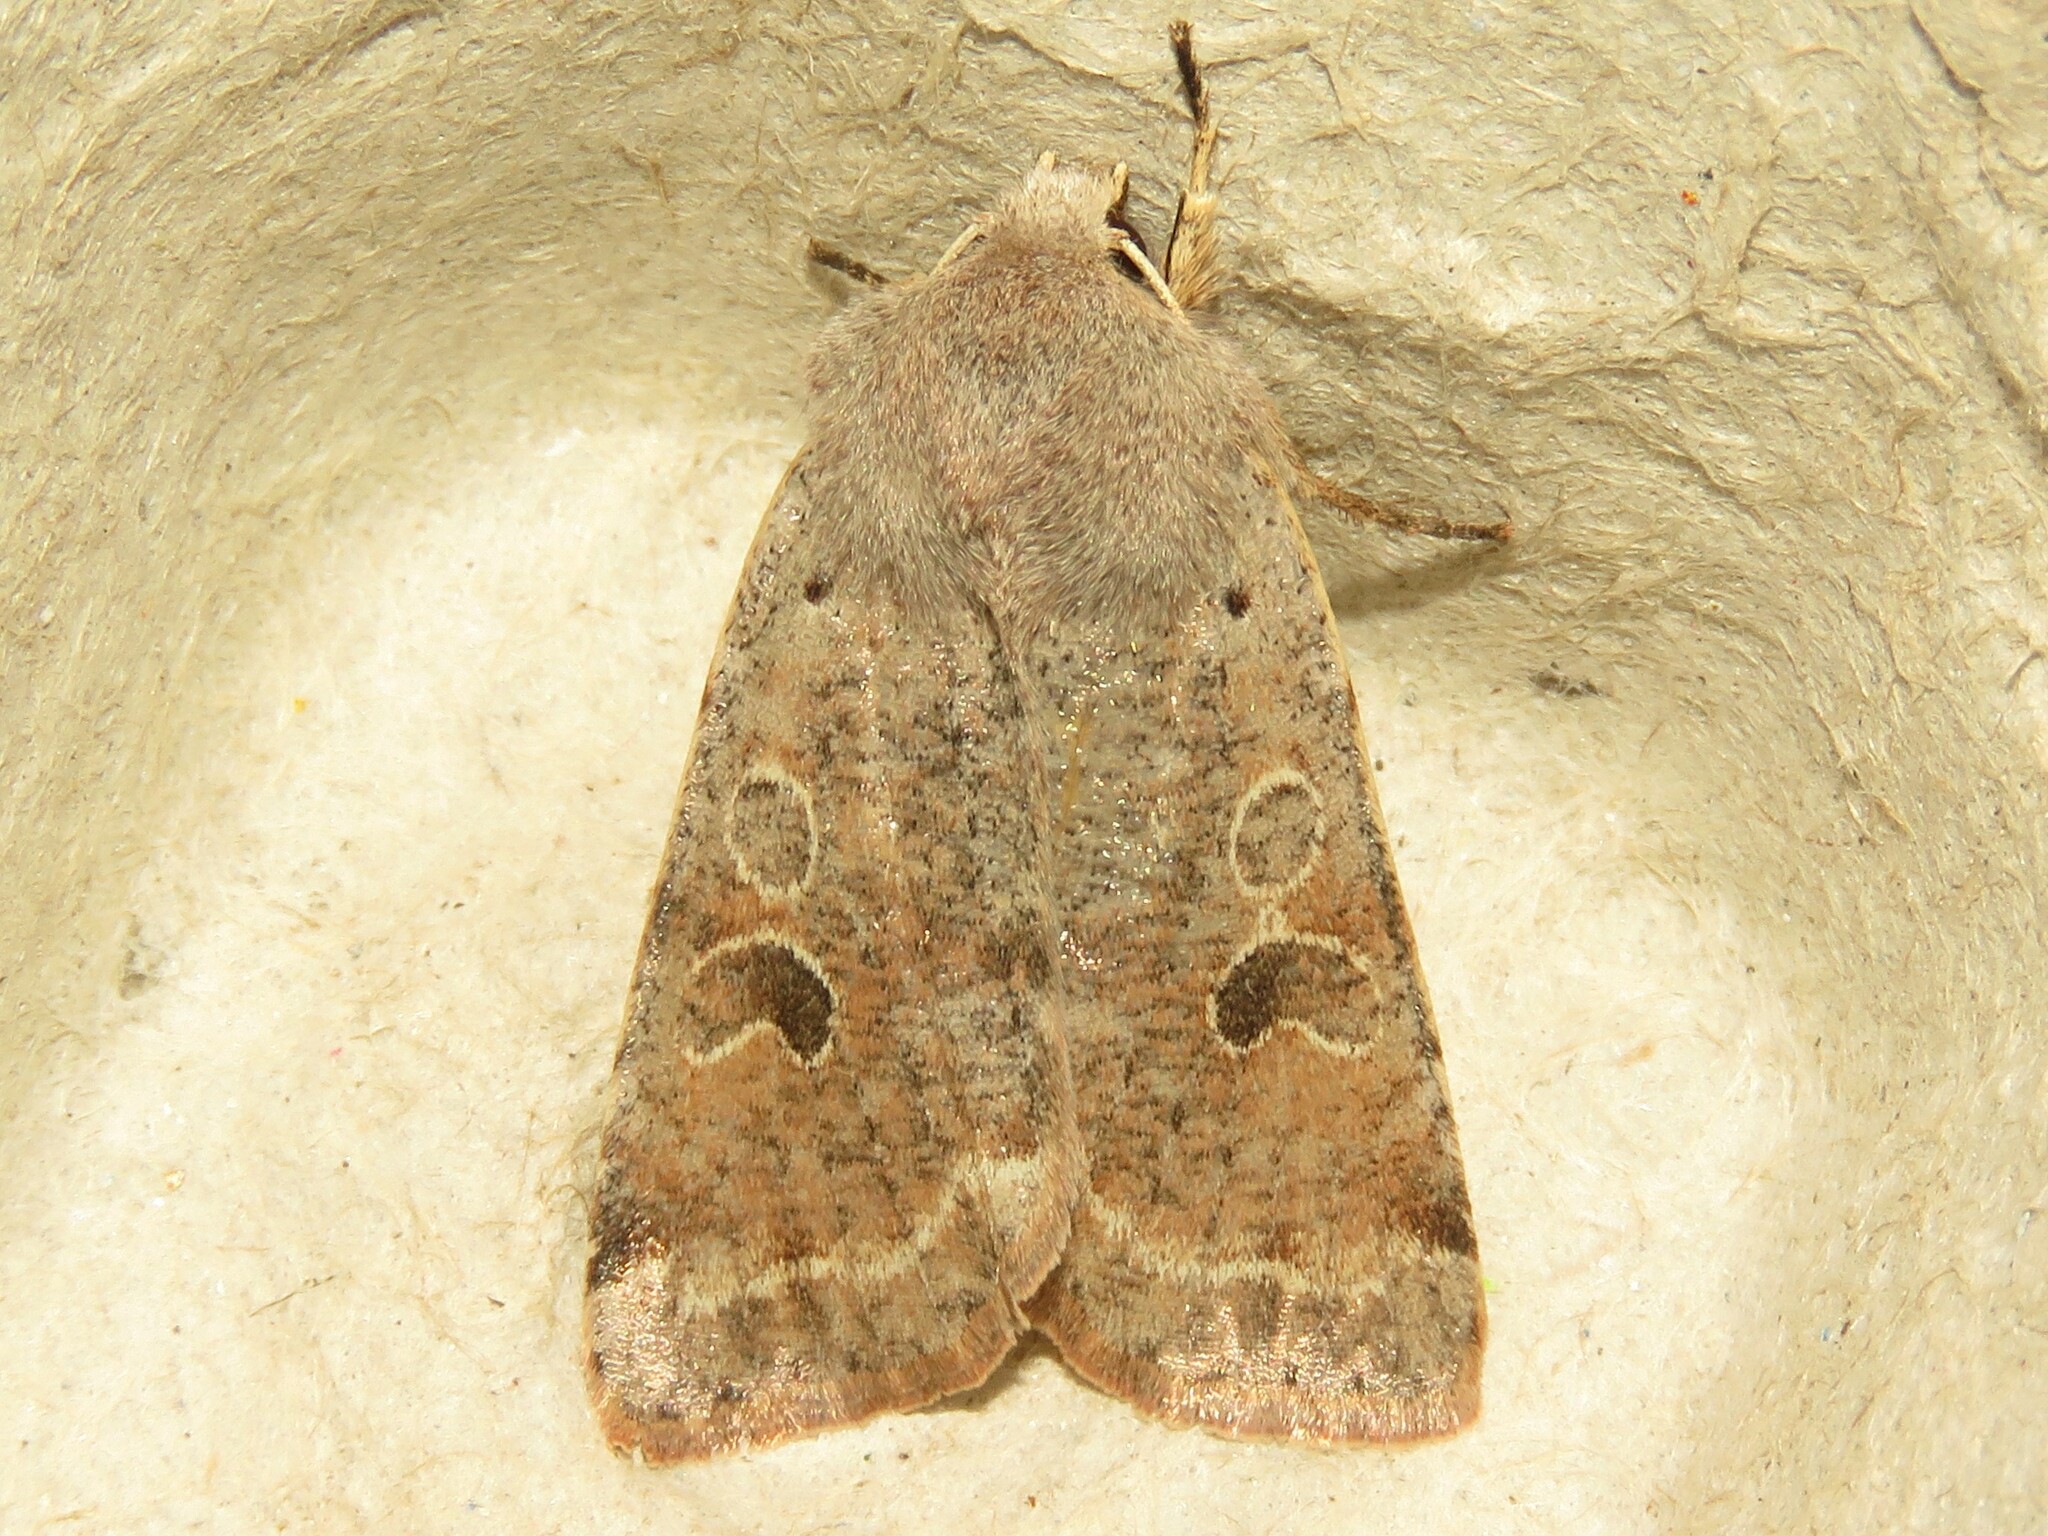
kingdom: Animalia
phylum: Arthropoda
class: Insecta
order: Lepidoptera
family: Noctuidae
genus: Orthosia
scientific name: Orthosia hibisci
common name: Green fruitworm
